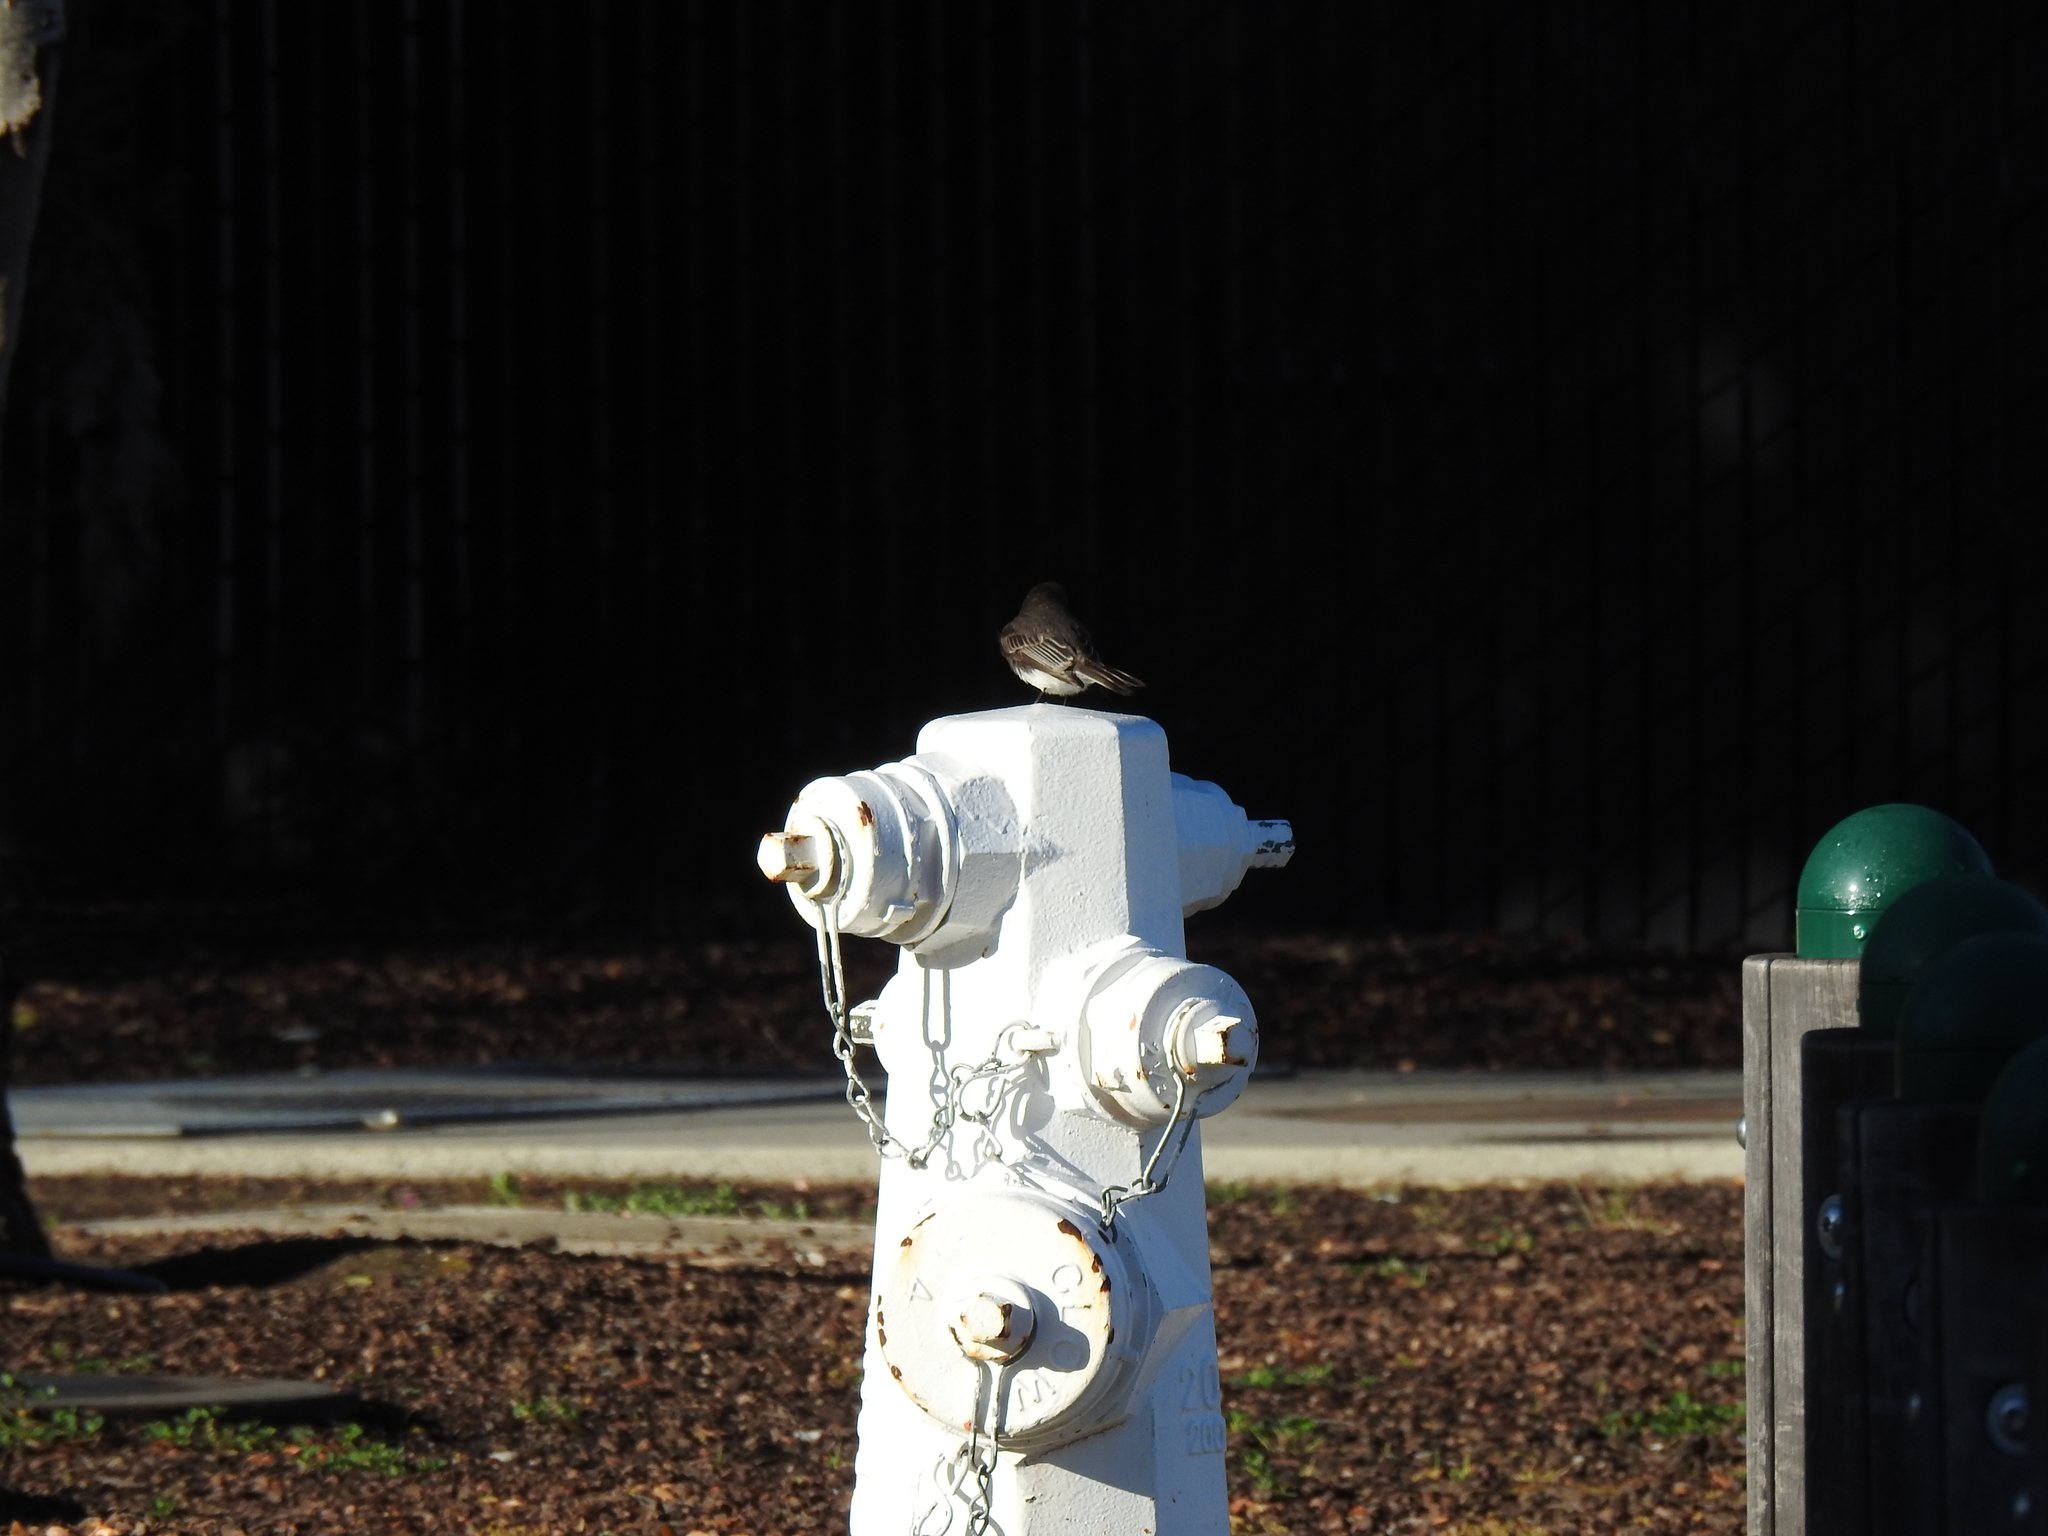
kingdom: Animalia
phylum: Chordata
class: Aves
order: Passeriformes
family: Tyrannidae
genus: Sayornis
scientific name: Sayornis nigricans
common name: Black phoebe
